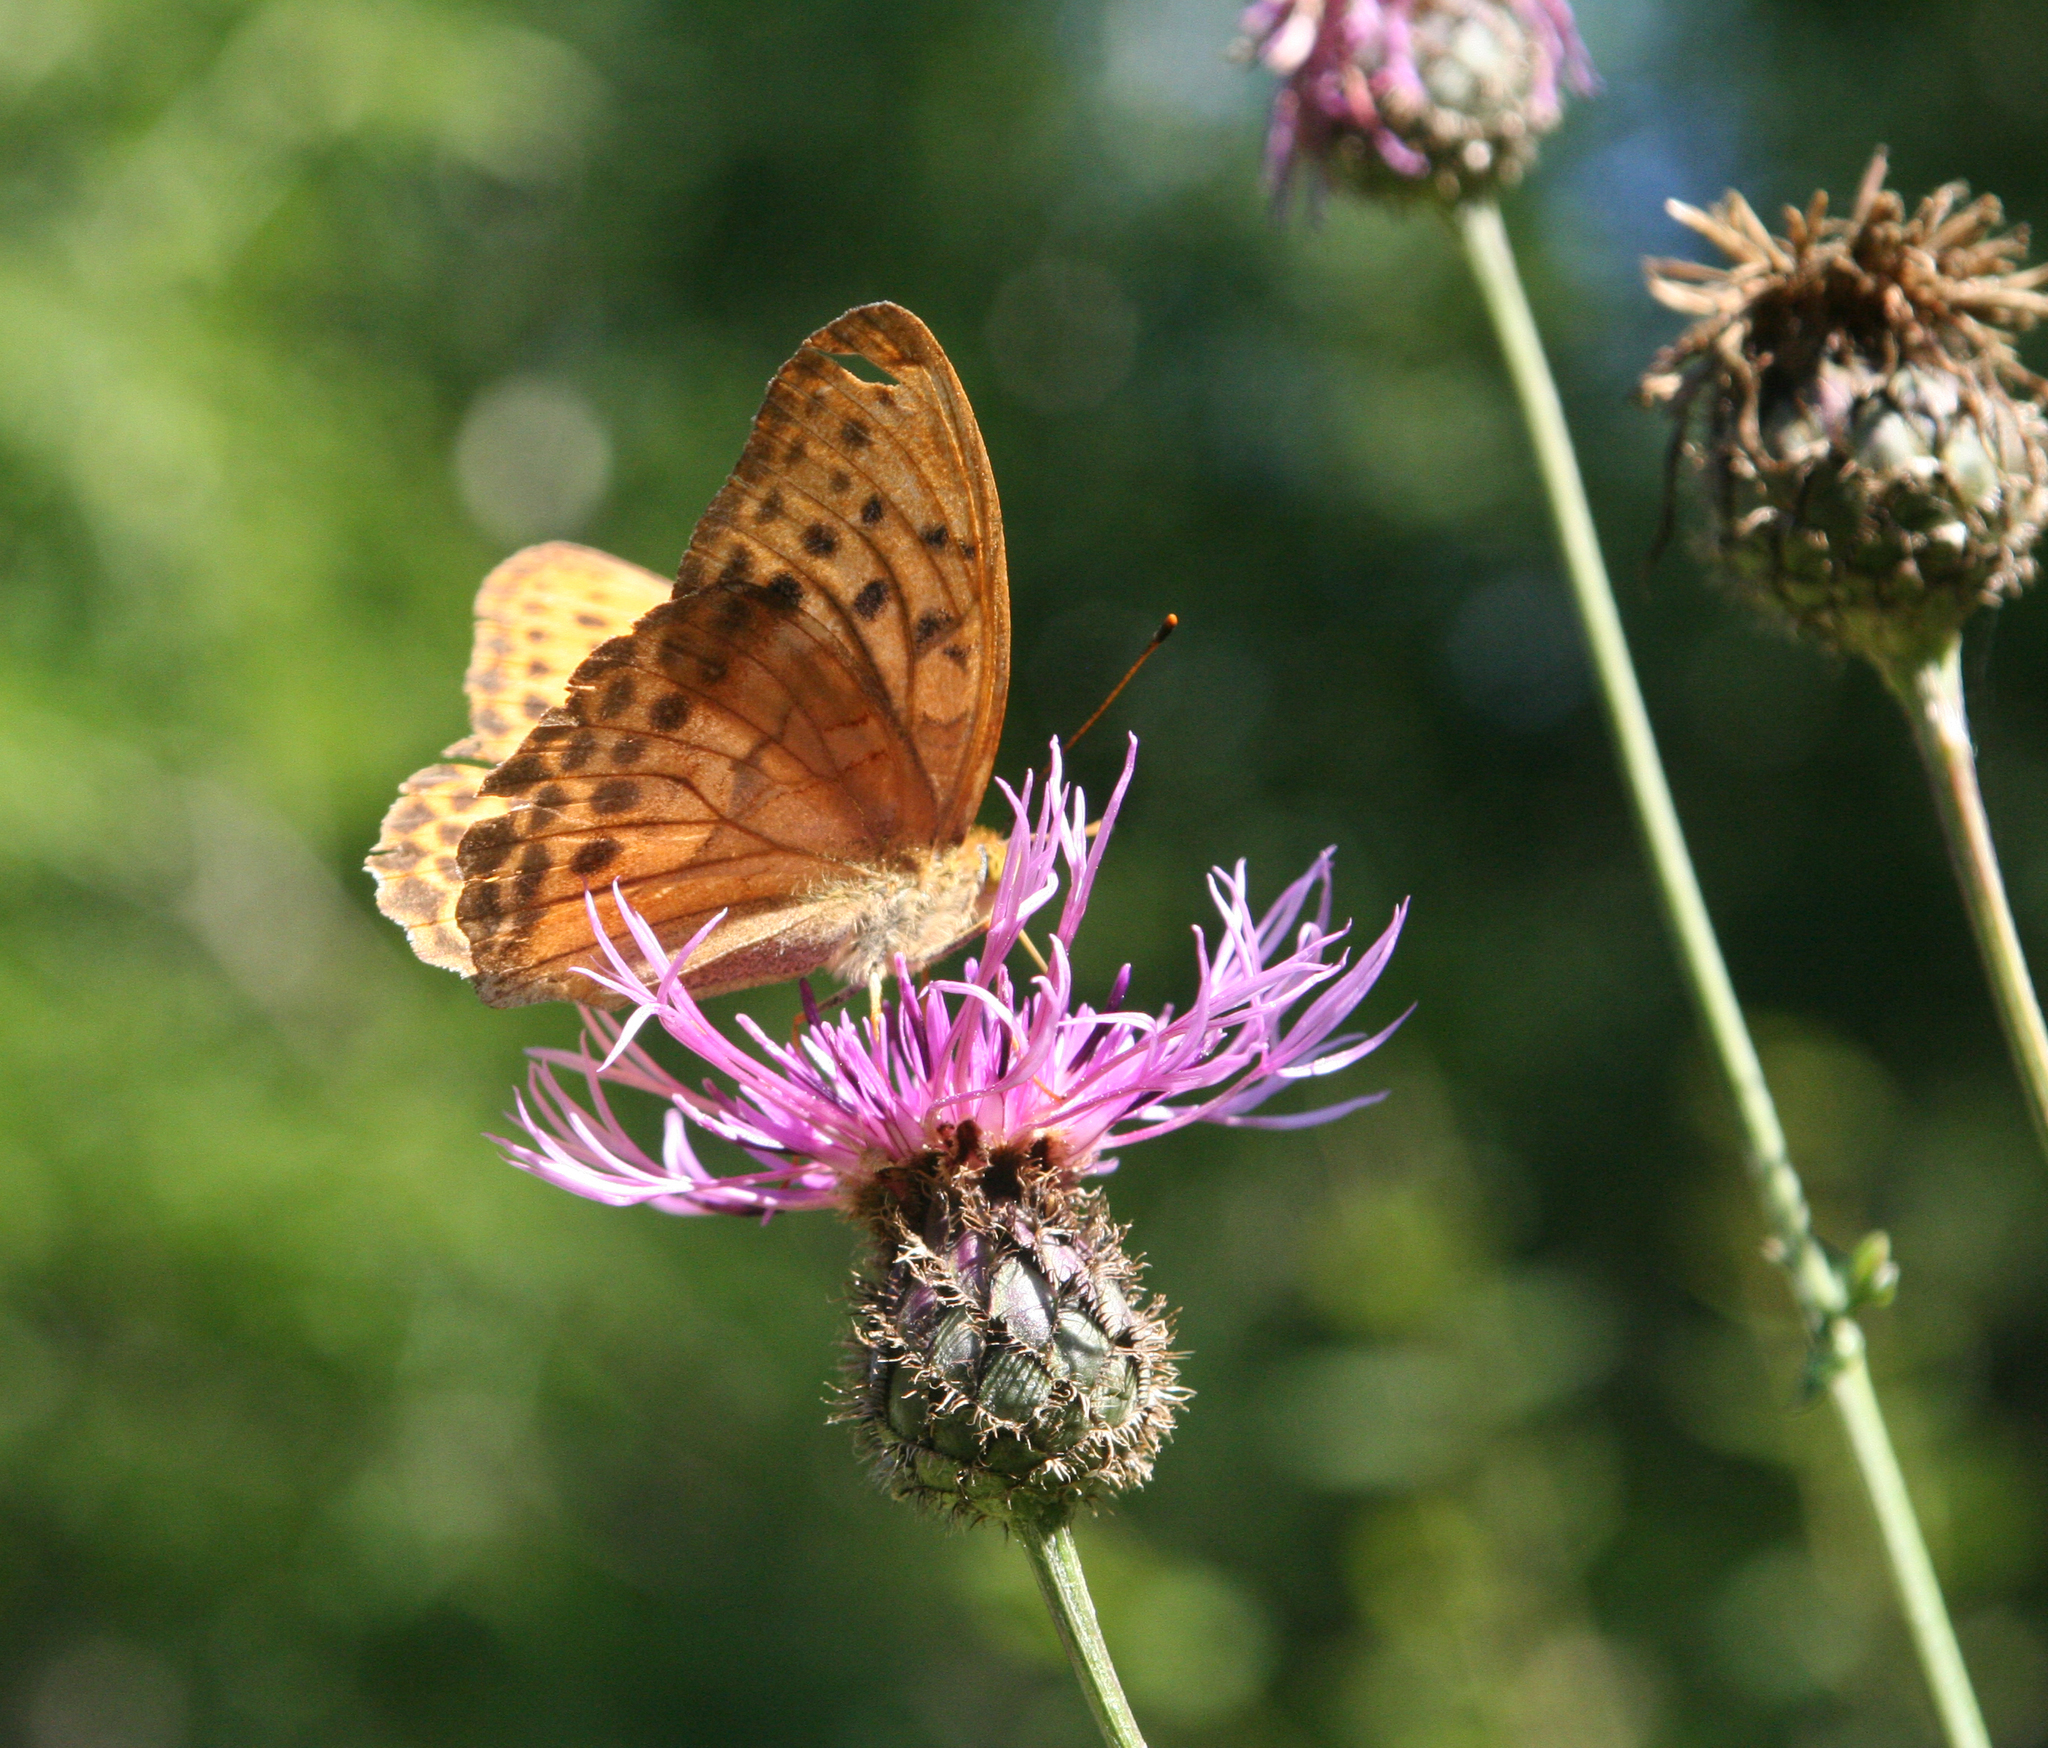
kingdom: Animalia
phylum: Arthropoda
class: Insecta
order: Lepidoptera
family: Nymphalidae
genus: Damora
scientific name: Damora sagana
